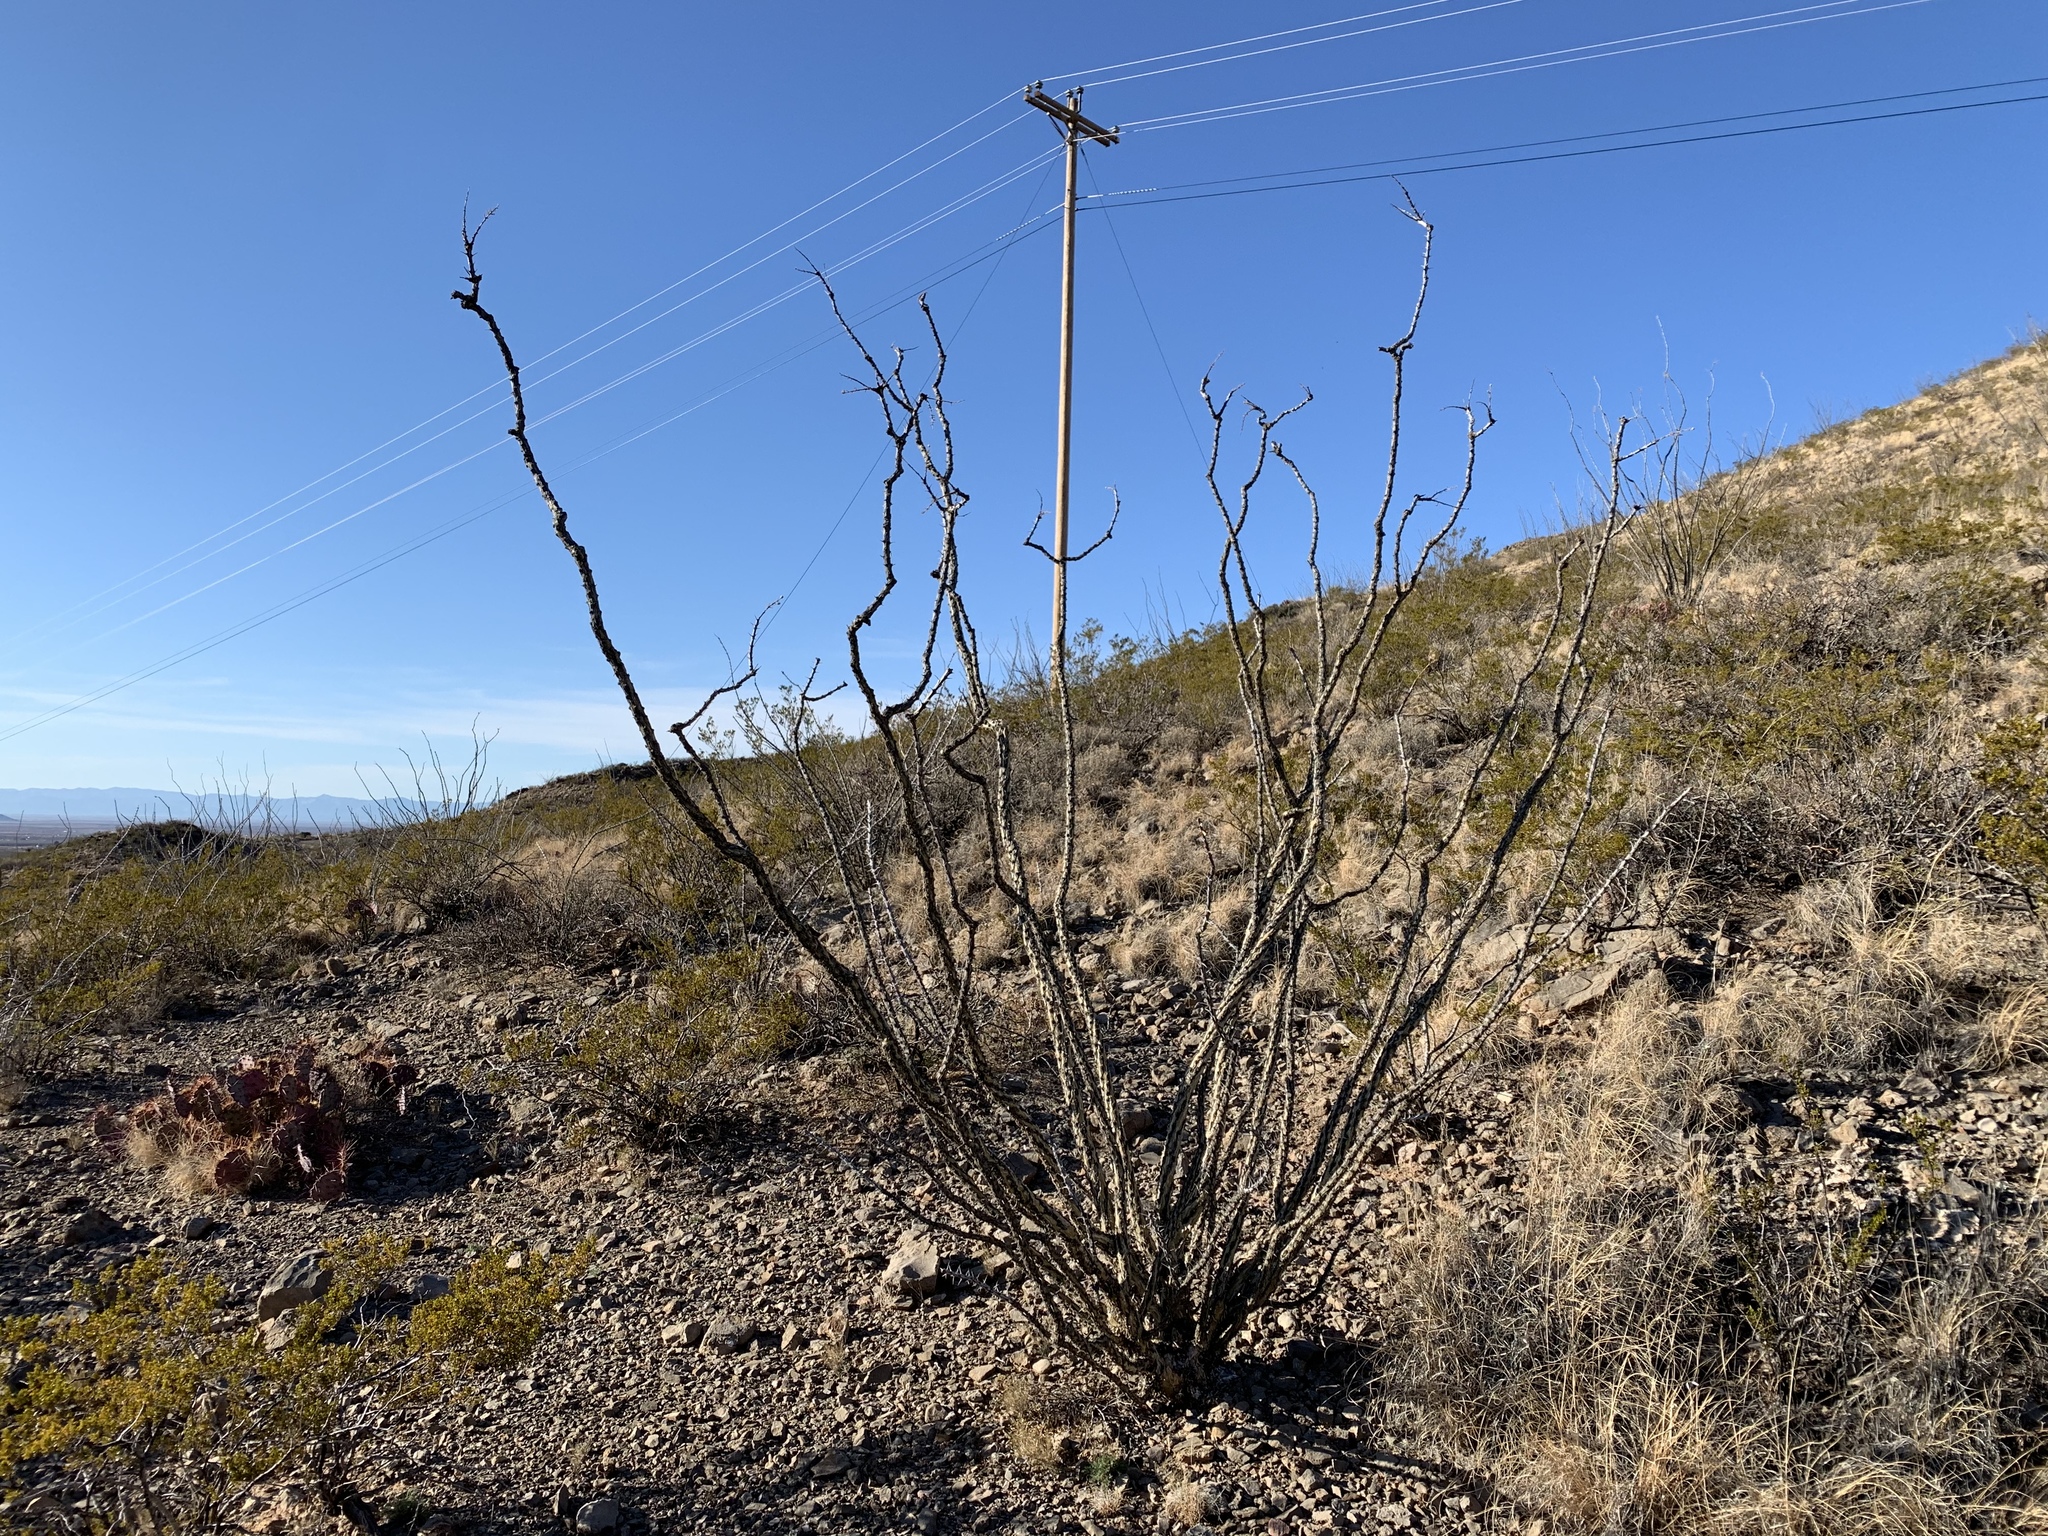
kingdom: Plantae
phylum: Tracheophyta
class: Magnoliopsida
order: Ericales
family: Fouquieriaceae
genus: Fouquieria
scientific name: Fouquieria splendens
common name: Vine-cactus
